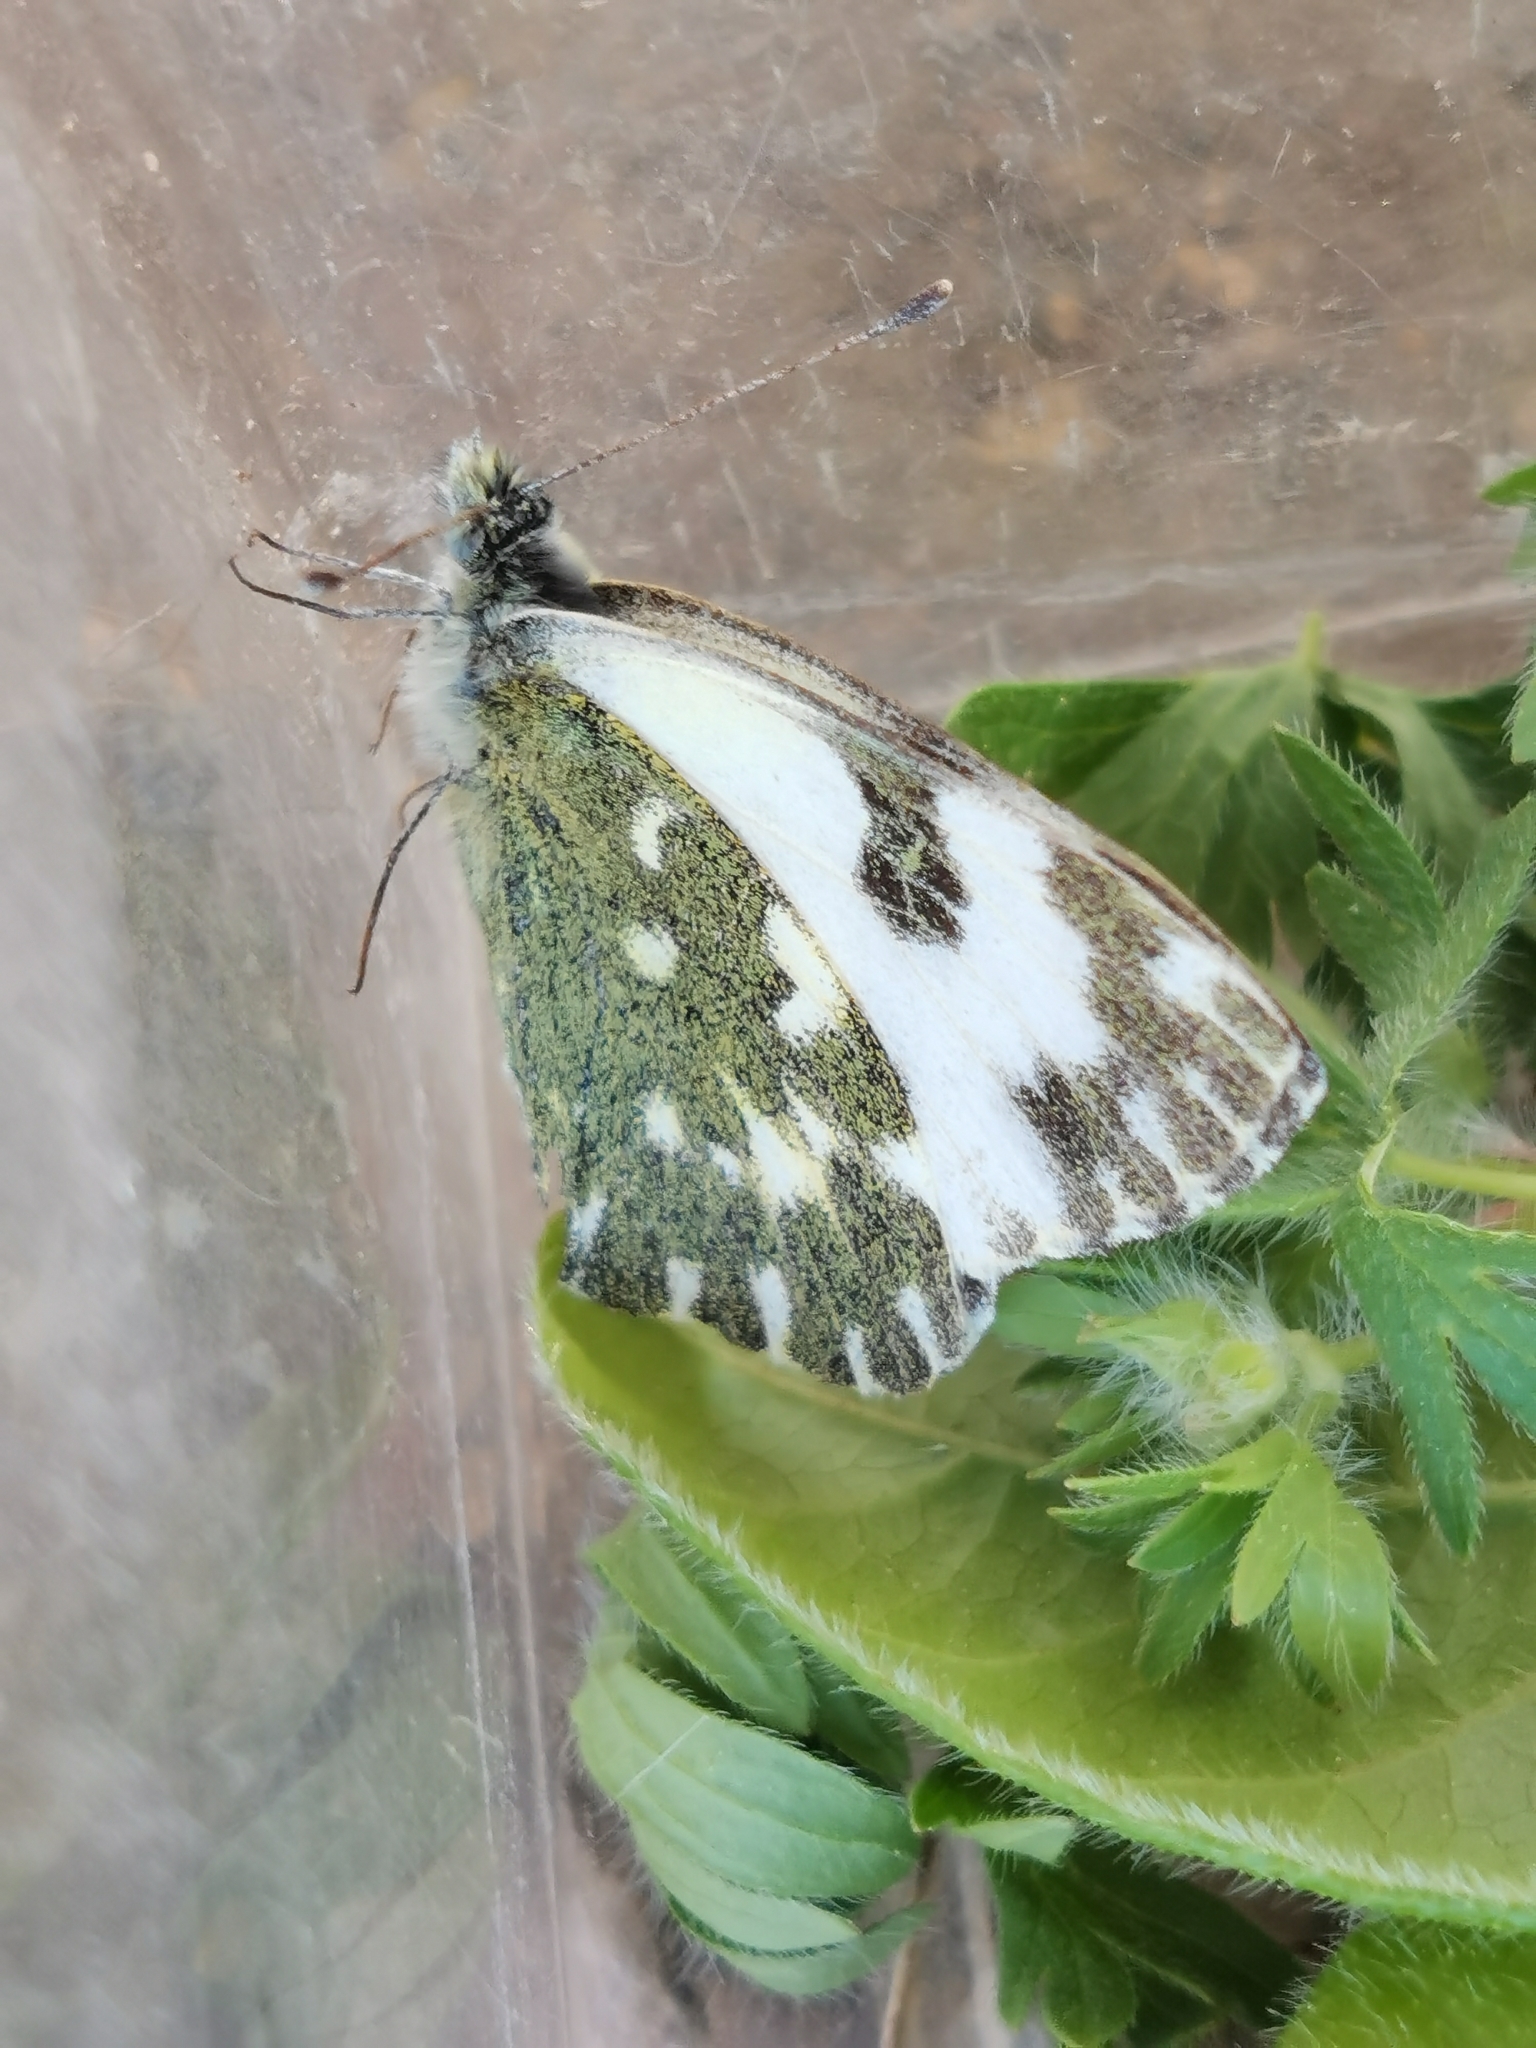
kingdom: Animalia
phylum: Arthropoda
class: Insecta
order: Lepidoptera
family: Pieridae
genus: Pontia
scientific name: Pontia daplidice
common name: Bath white
